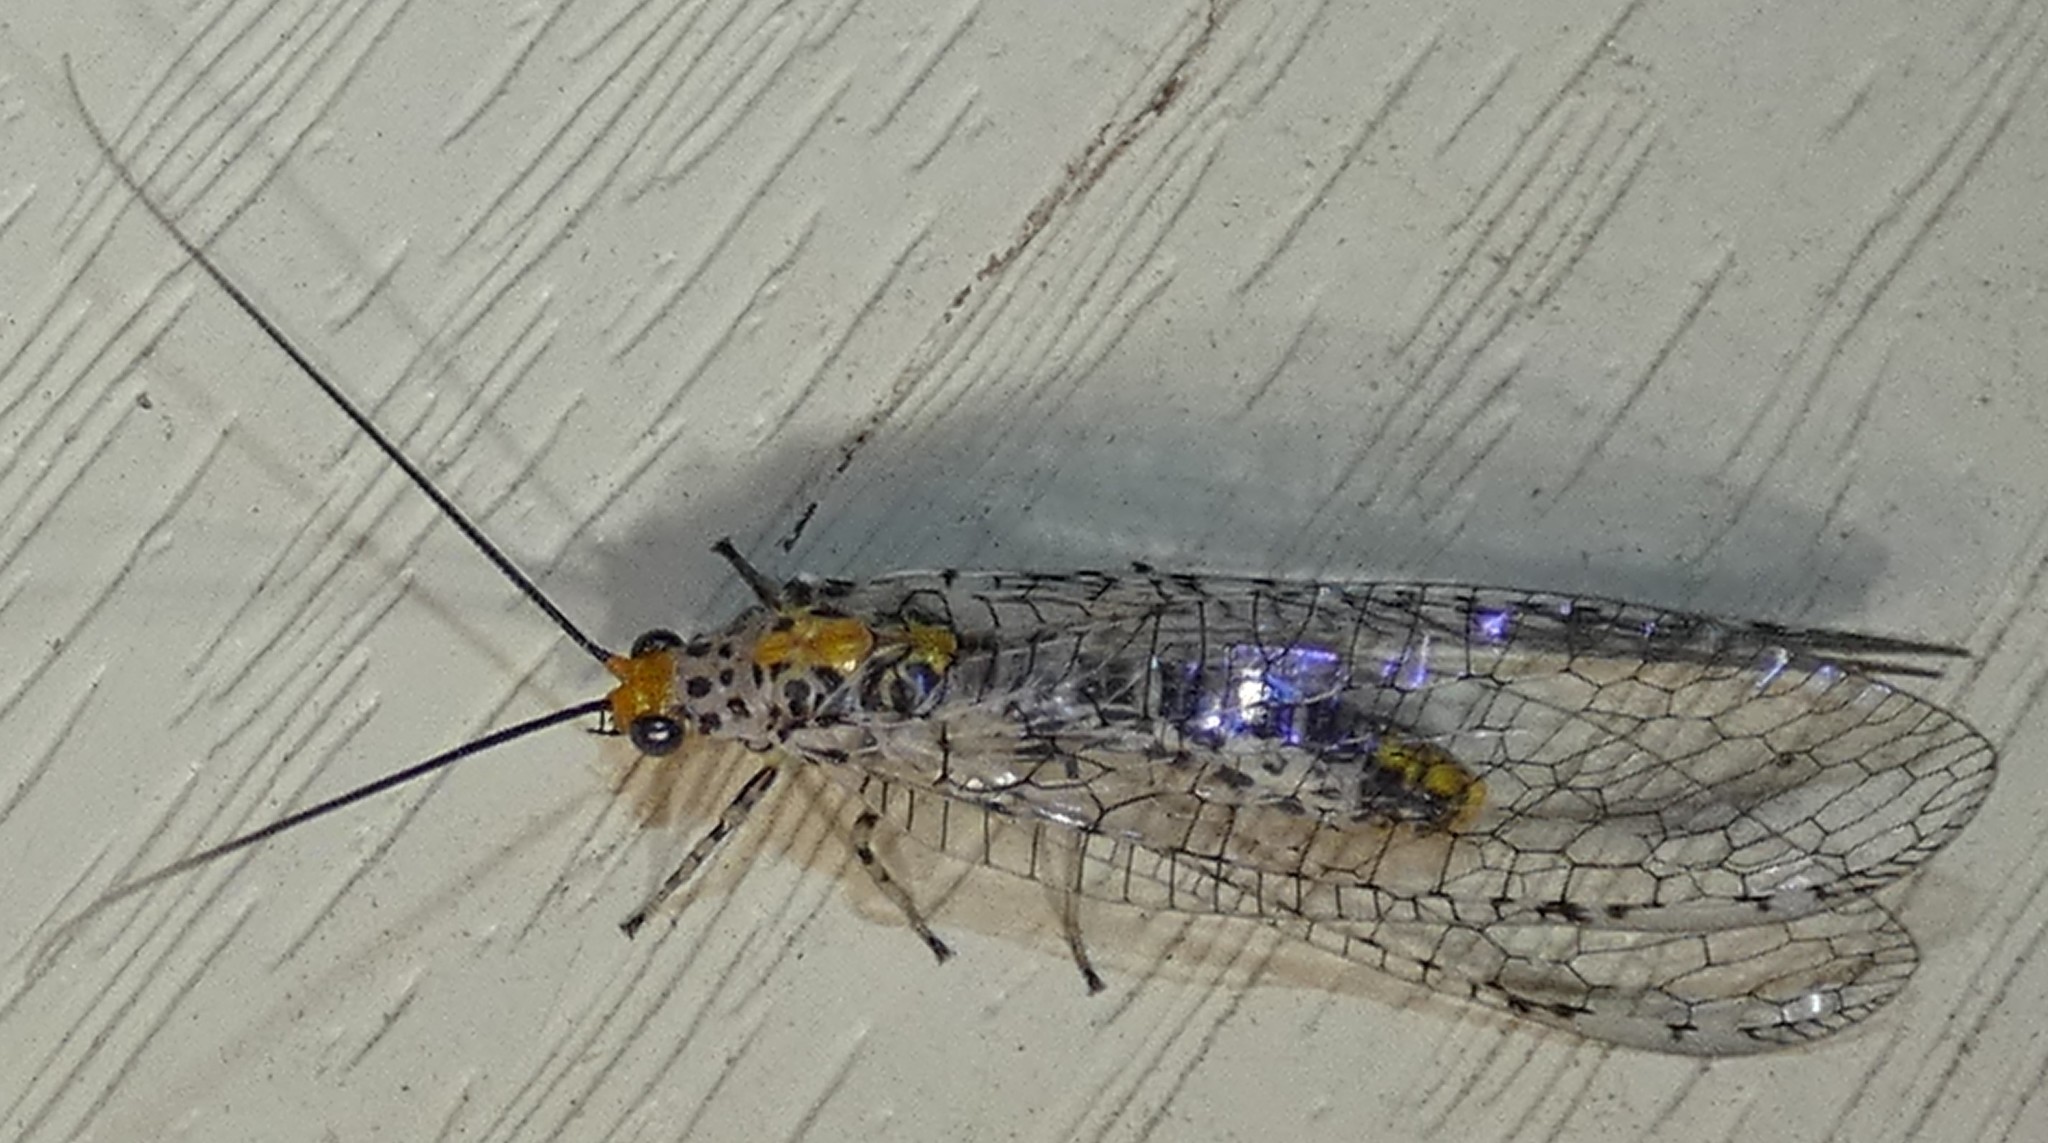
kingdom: Animalia
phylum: Arthropoda
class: Insecta
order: Neuroptera
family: Chrysopidae
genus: Abachrysa
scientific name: Abachrysa eureka
